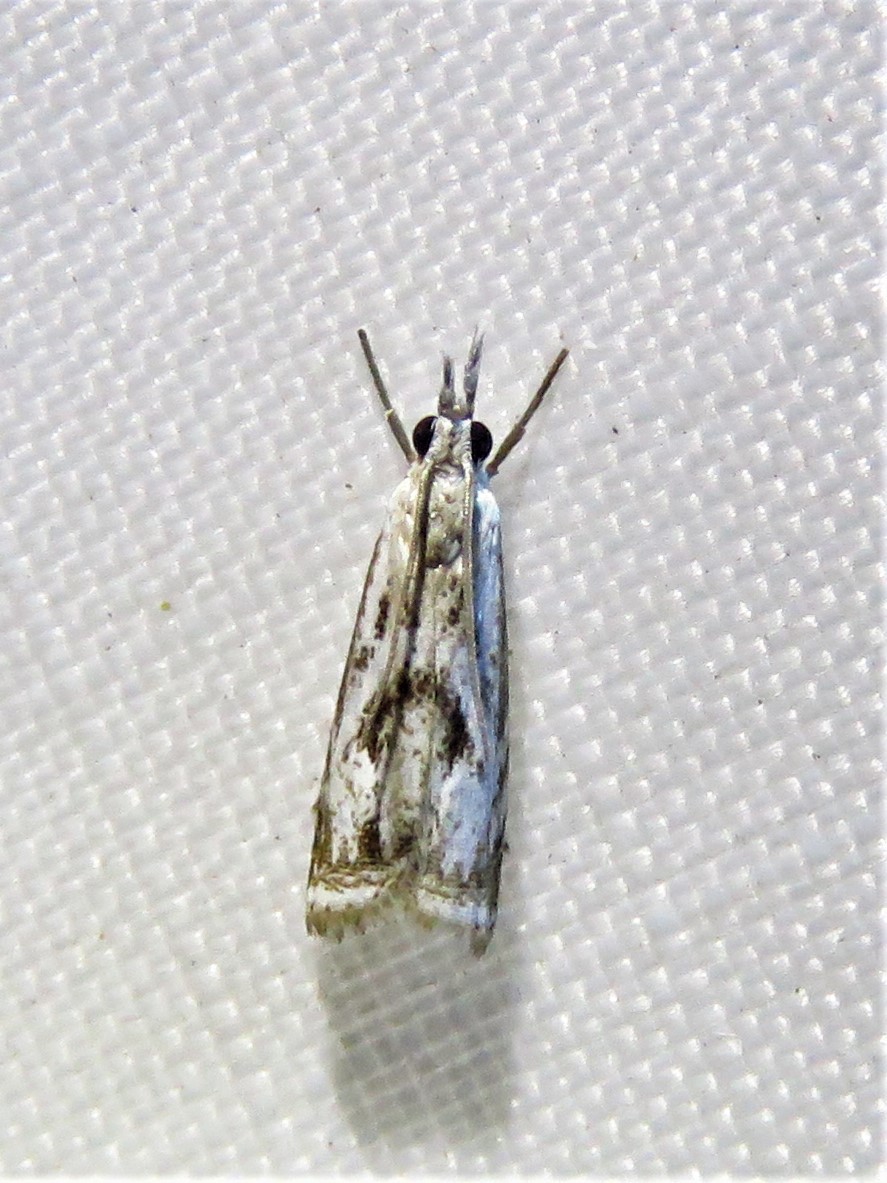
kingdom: Animalia
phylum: Arthropoda
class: Insecta
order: Lepidoptera
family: Crambidae
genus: Microcrambus
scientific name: Microcrambus elegans
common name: Elegant grass-veneer
